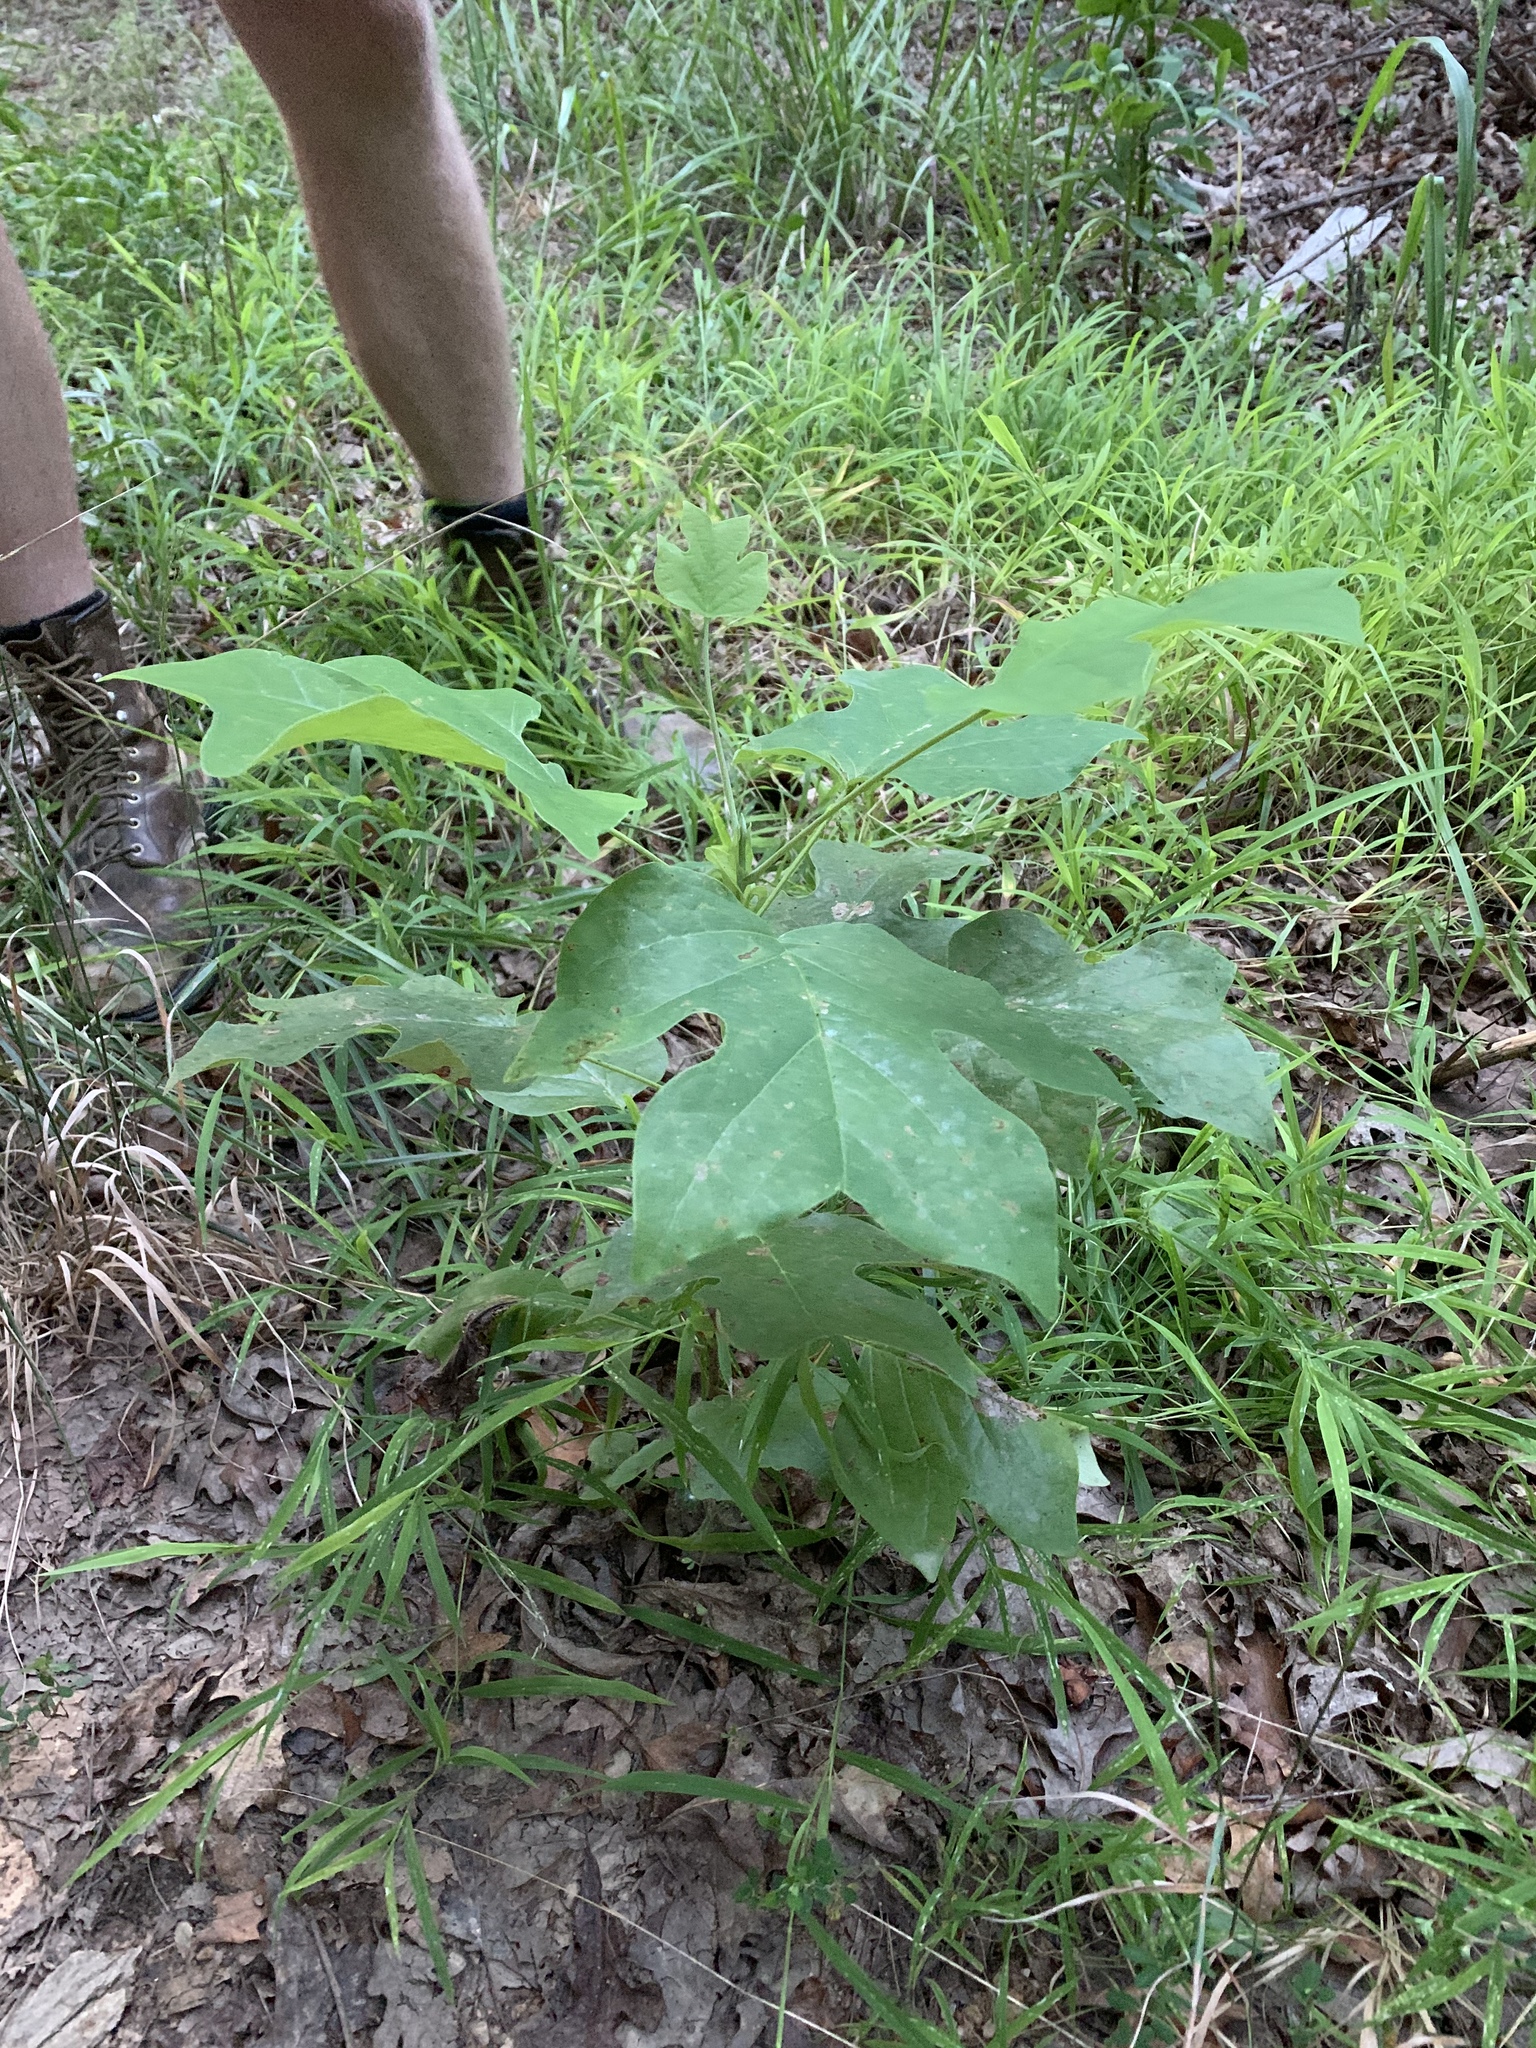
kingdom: Plantae
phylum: Tracheophyta
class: Magnoliopsida
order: Magnoliales
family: Magnoliaceae
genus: Liriodendron
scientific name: Liriodendron tulipifera
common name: Tulip tree
